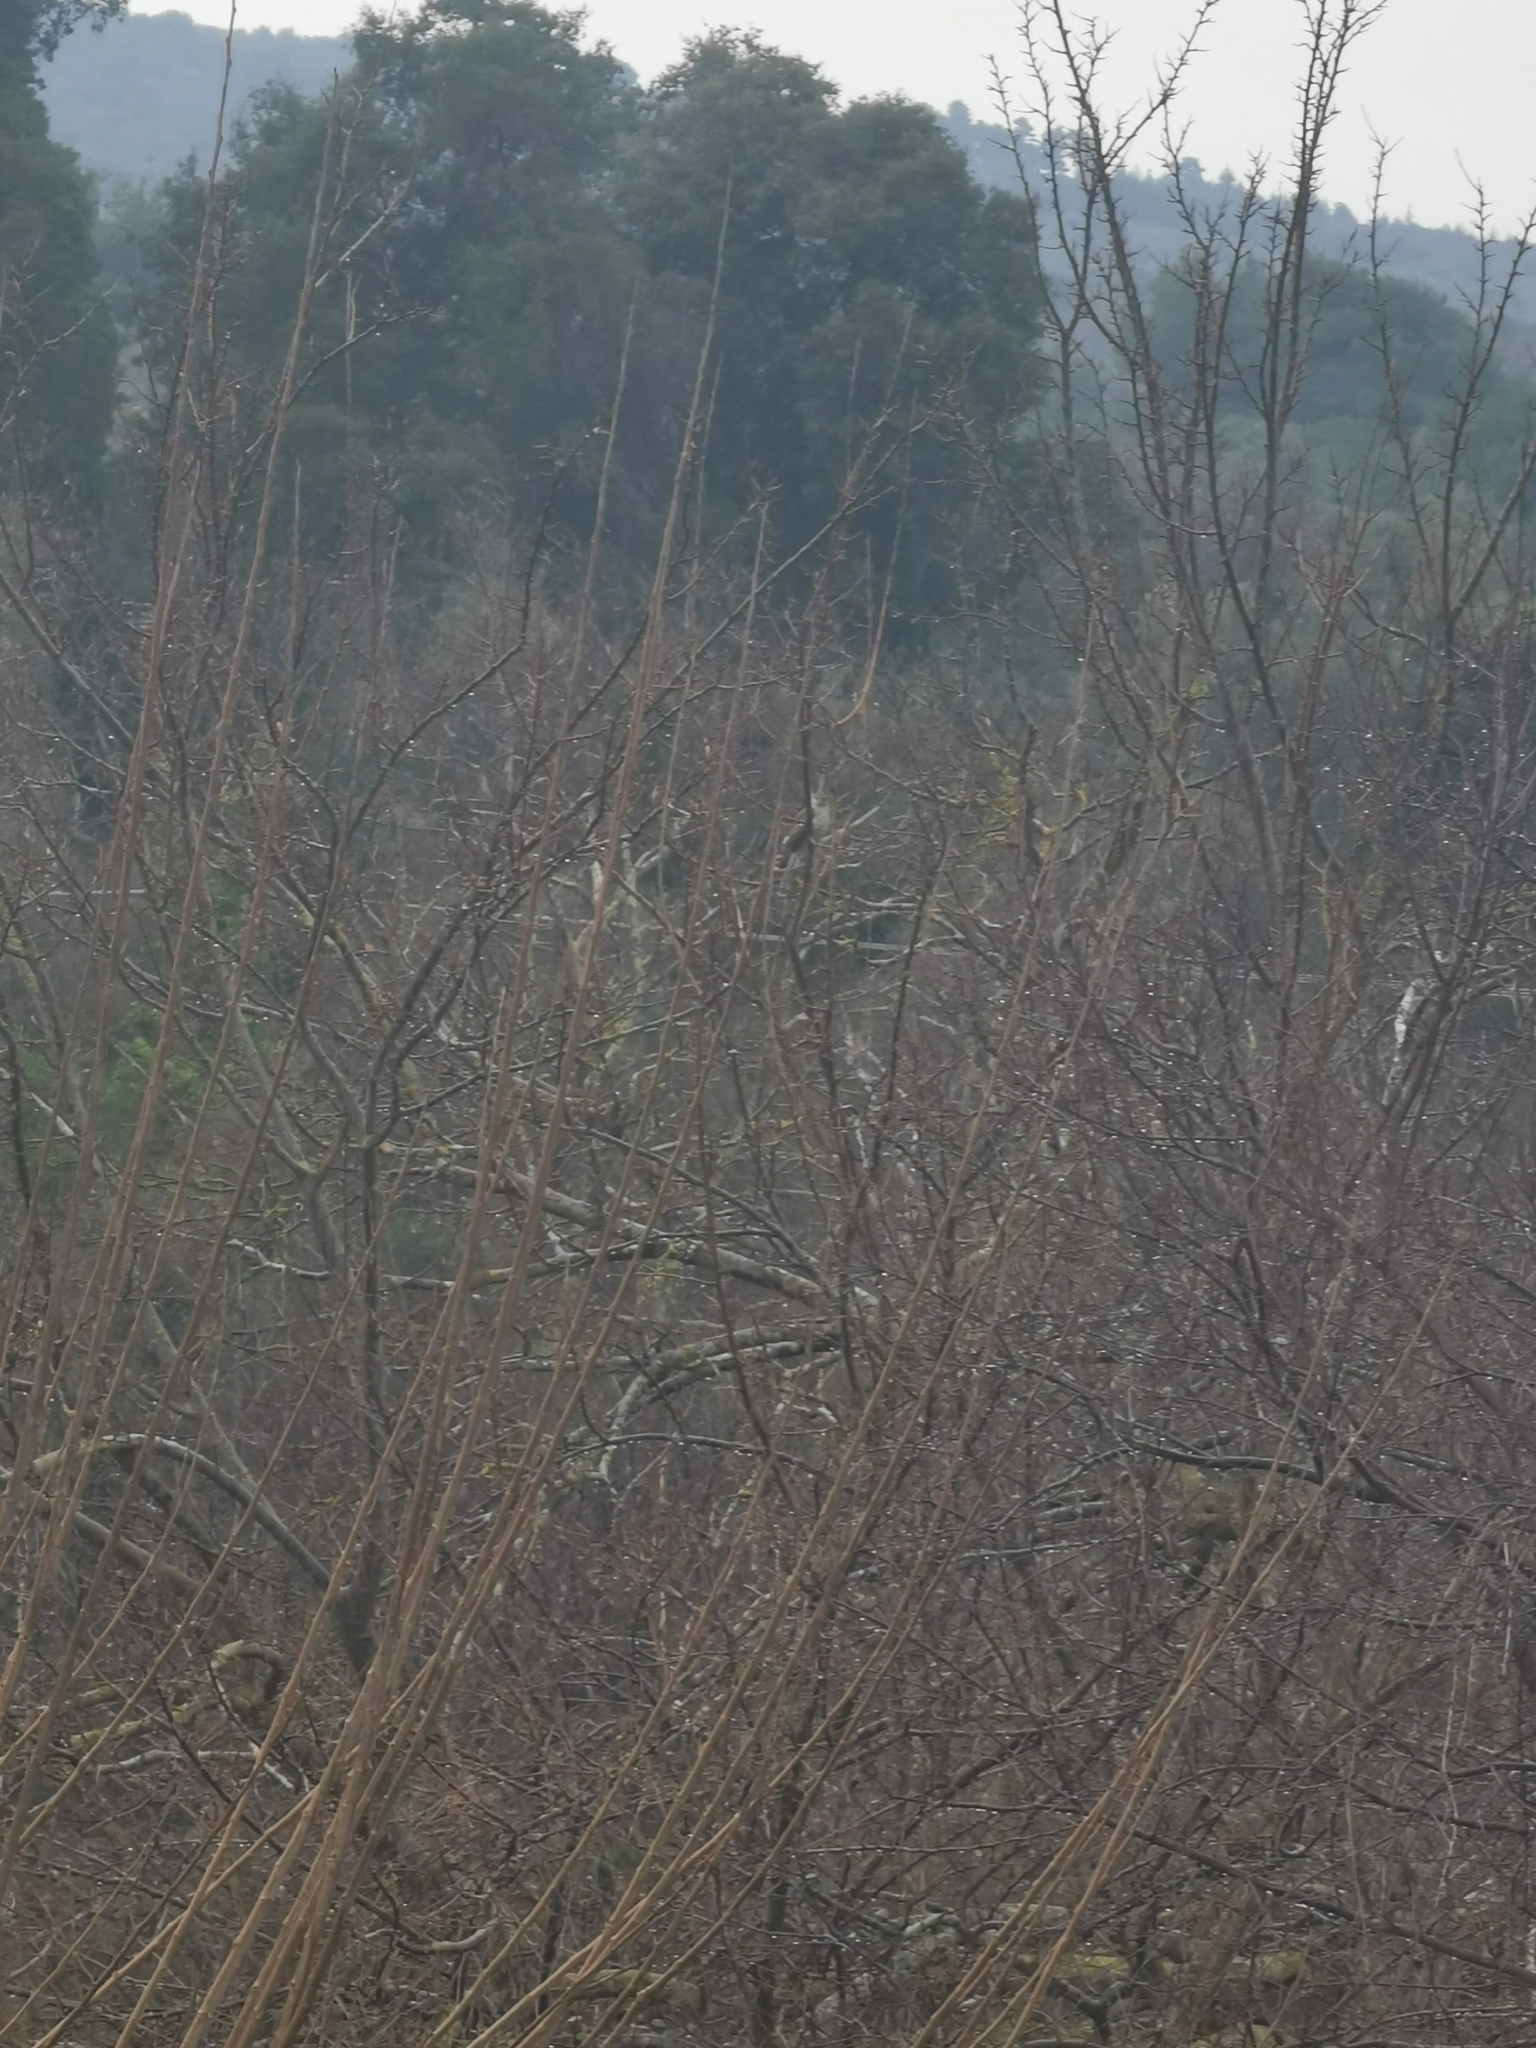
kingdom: Animalia
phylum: Chordata
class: Aves
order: Accipitriformes
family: Accipitridae
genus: Accipiter
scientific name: Accipiter nisus
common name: Eurasian sparrowhawk
